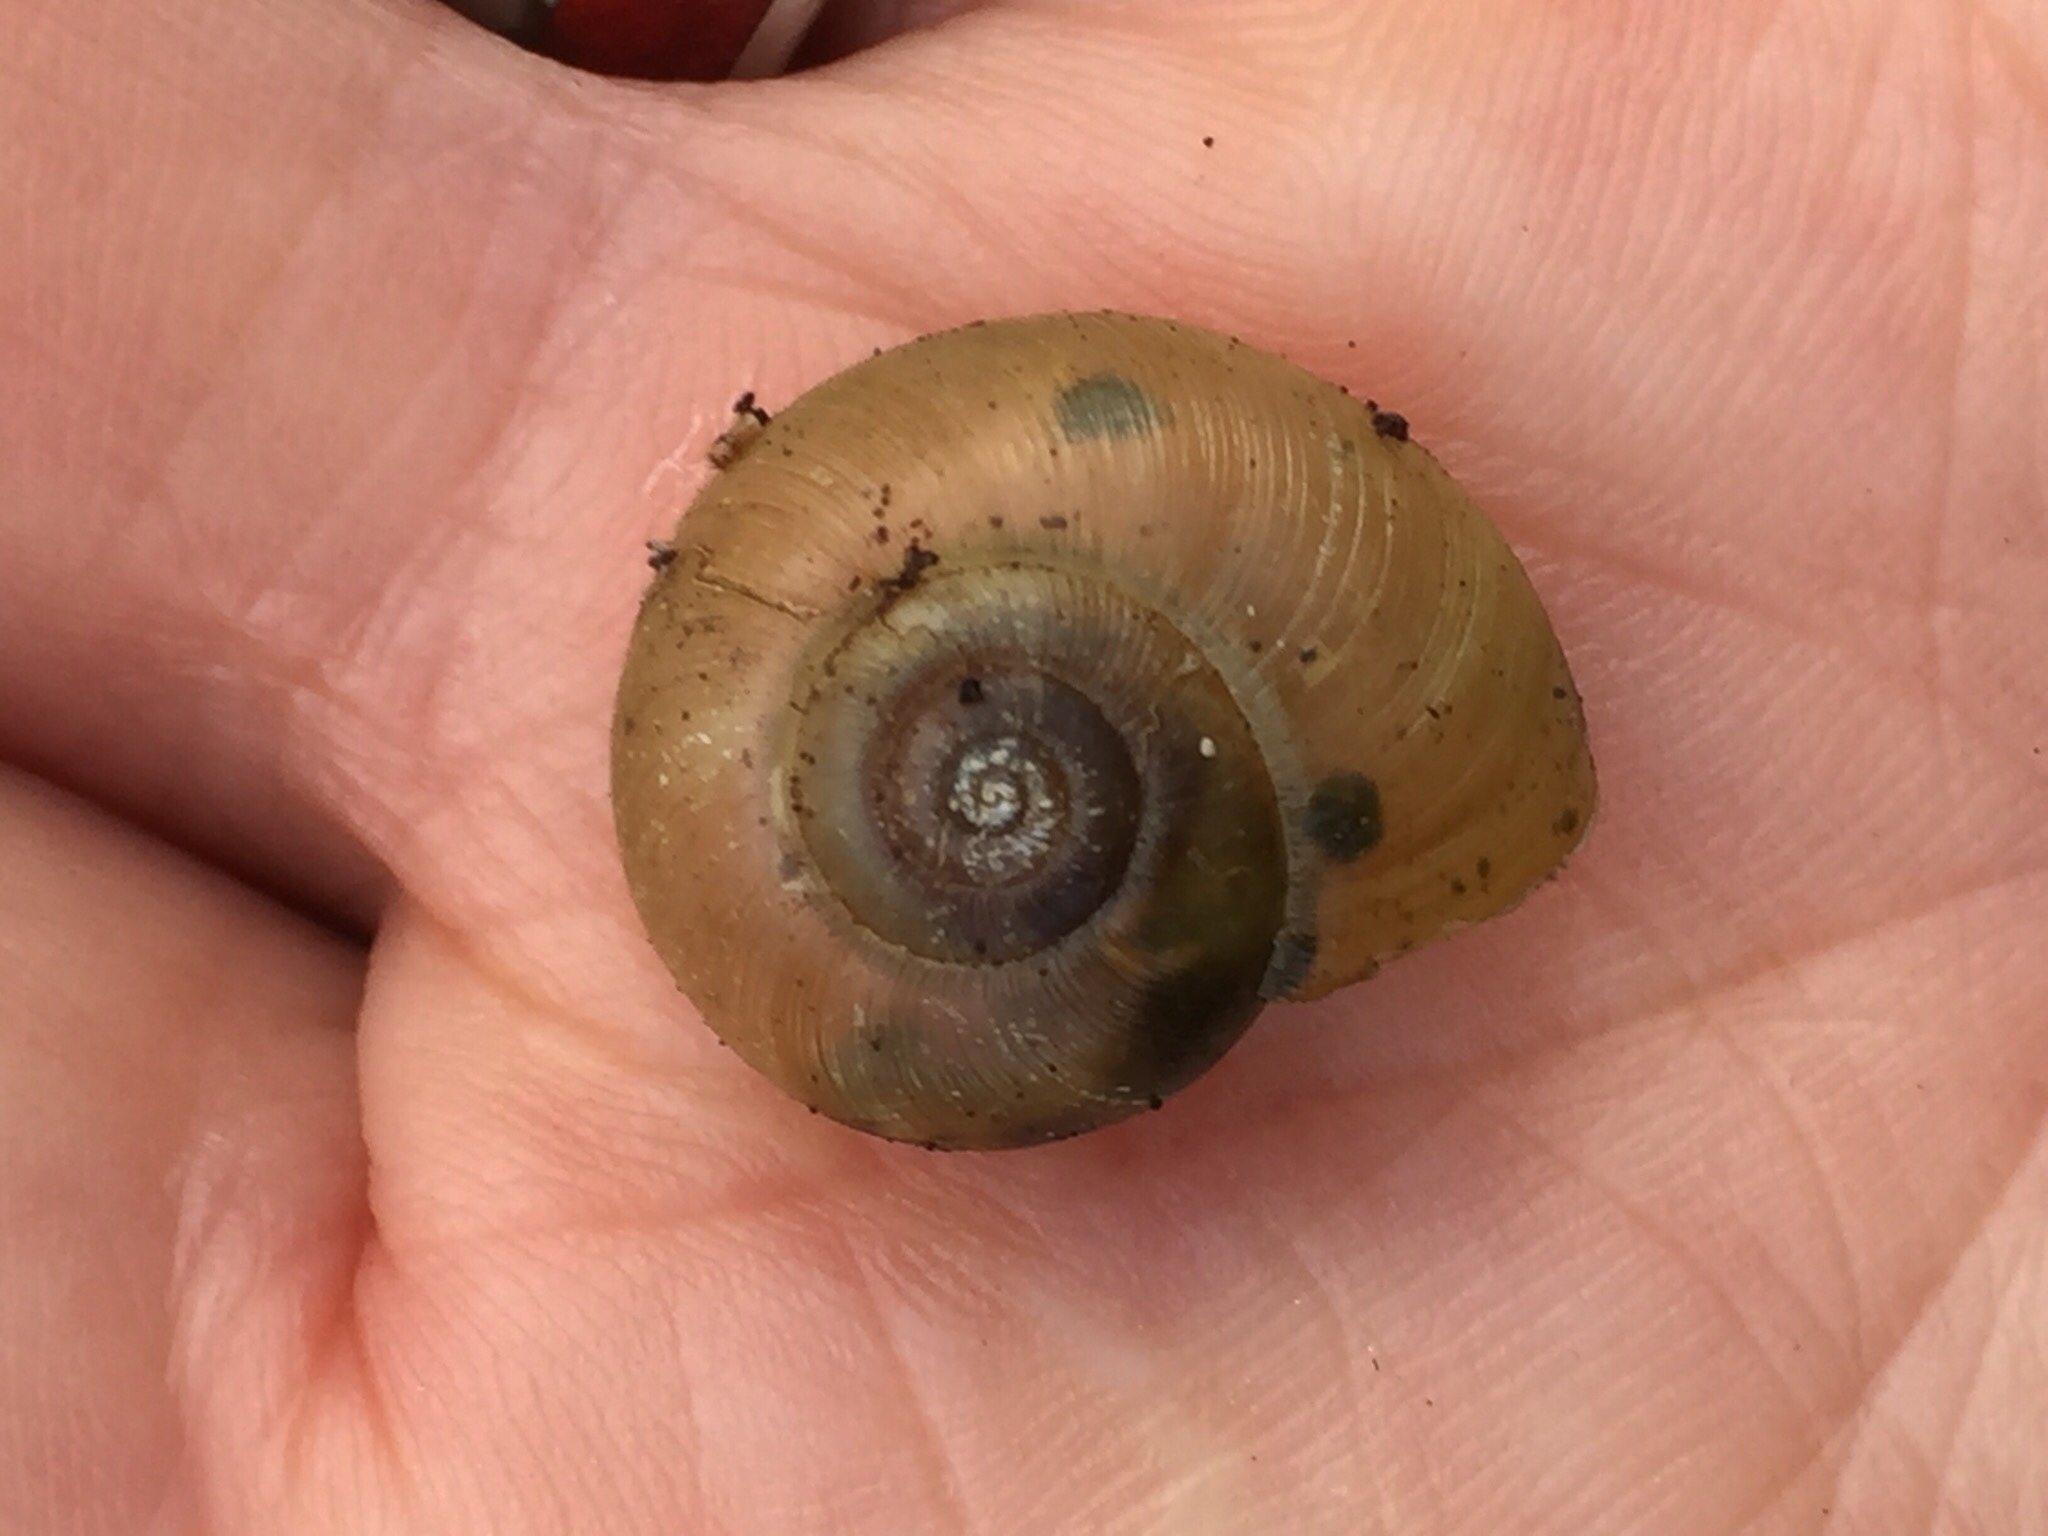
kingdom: Animalia
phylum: Mollusca
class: Gastropoda
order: Stylommatophora
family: Haplotrematidae
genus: Haplotrema
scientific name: Haplotrema minimum
